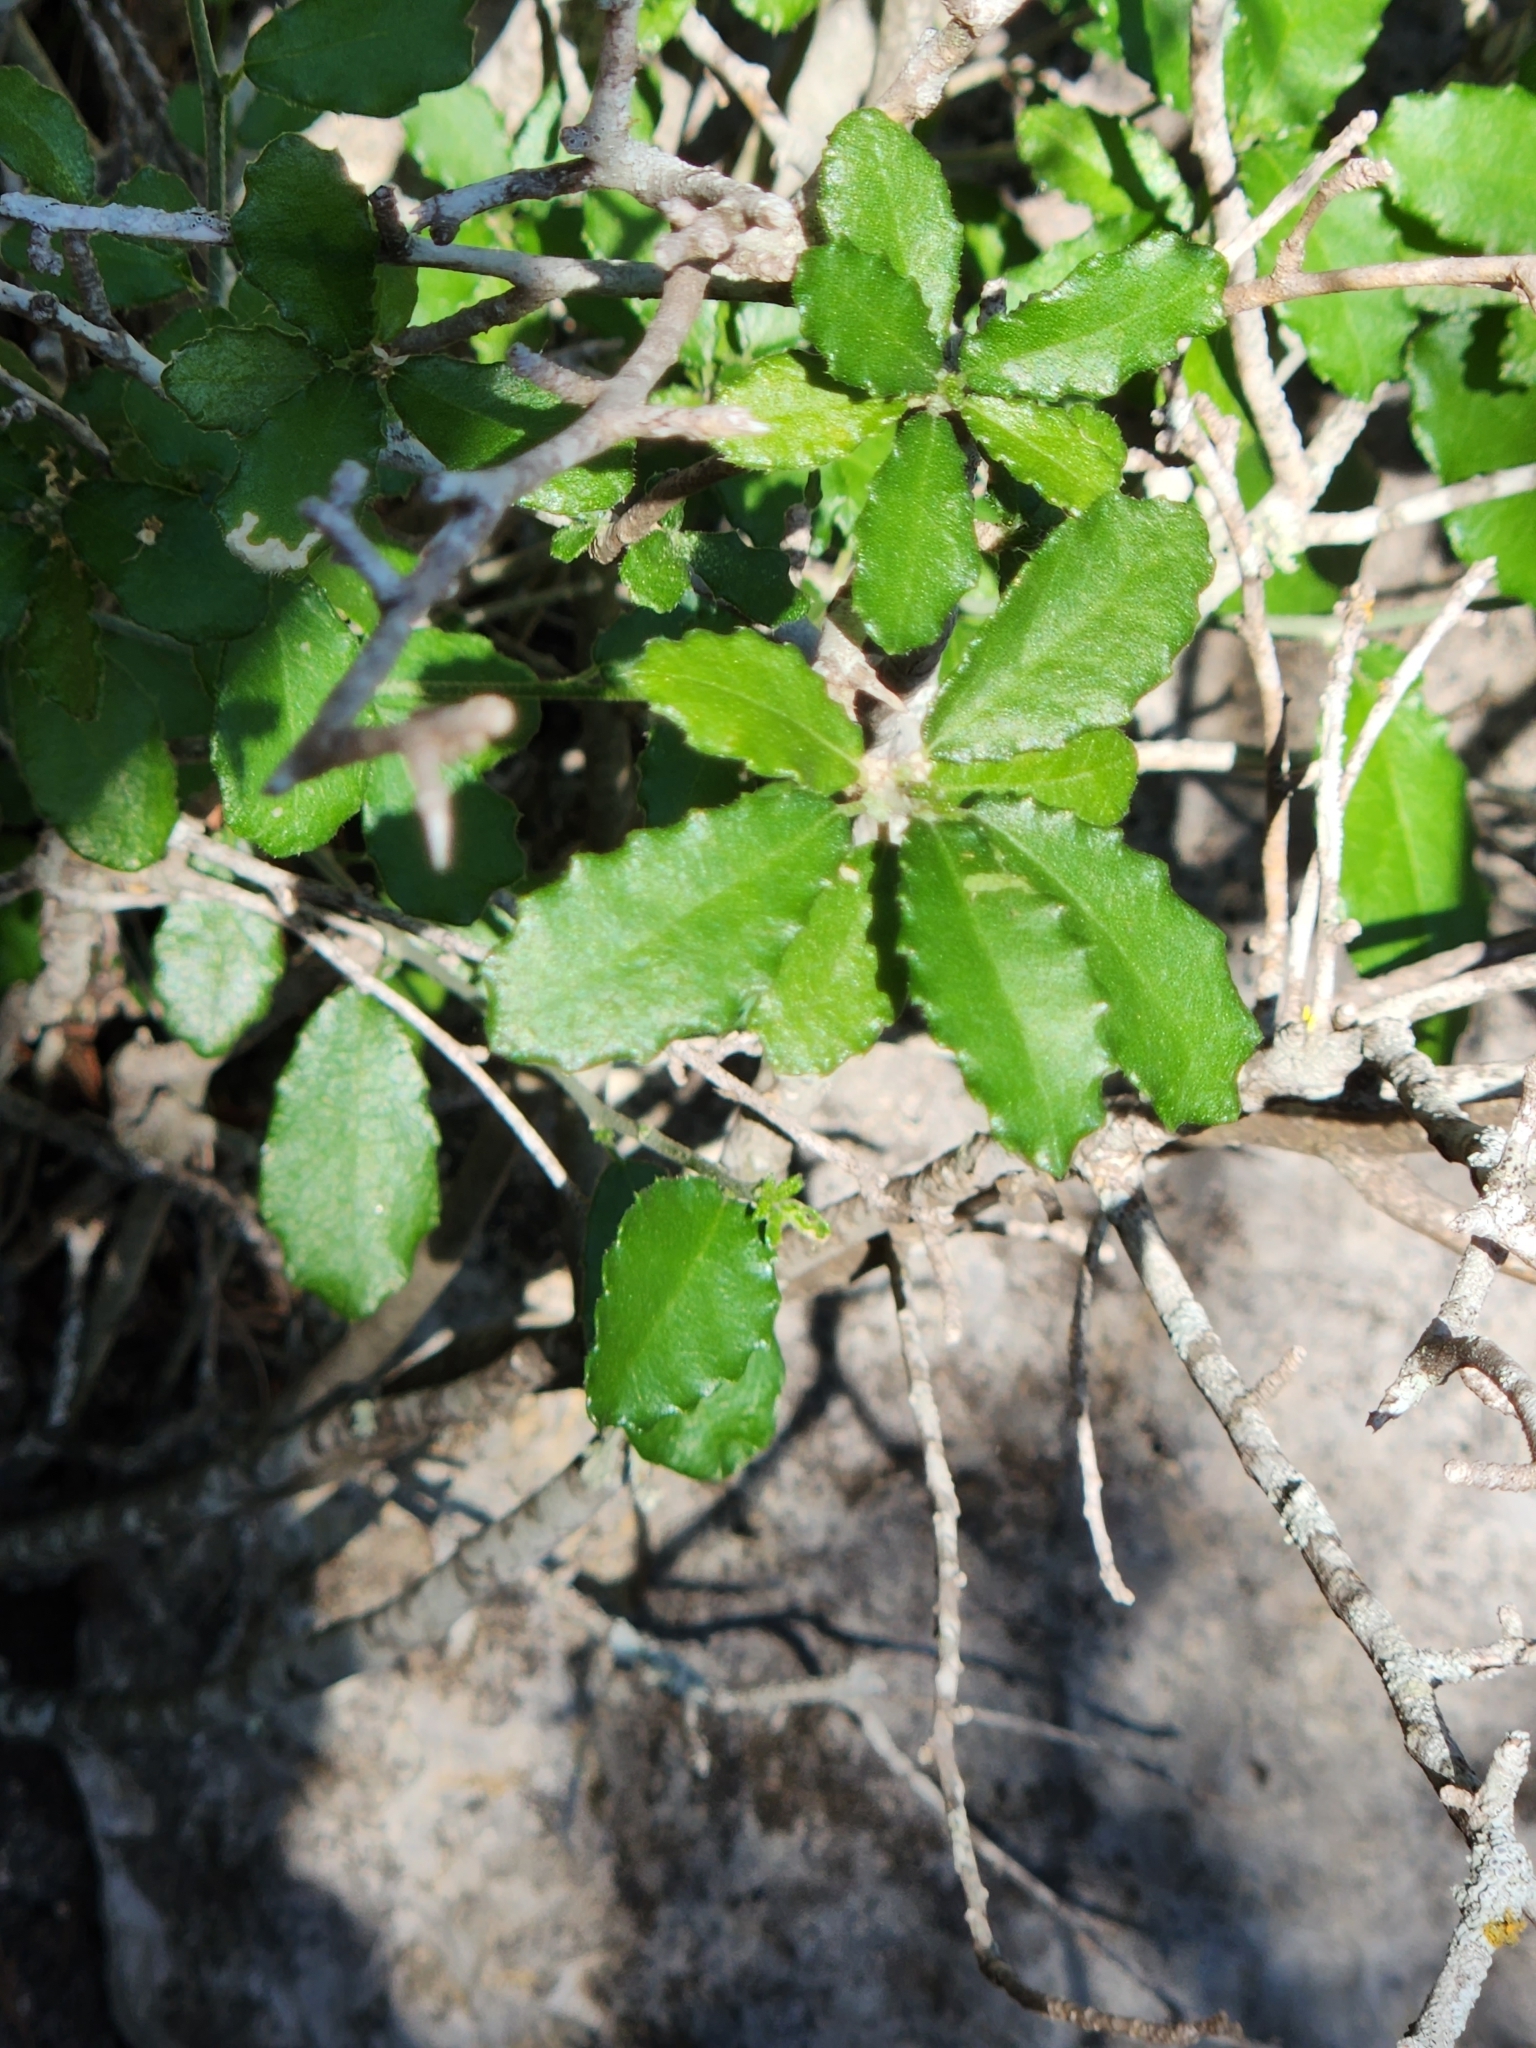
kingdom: Plantae
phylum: Tracheophyta
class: Magnoliopsida
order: Malpighiales
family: Euphorbiaceae
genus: Bernardia
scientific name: Bernardia myricifolia
